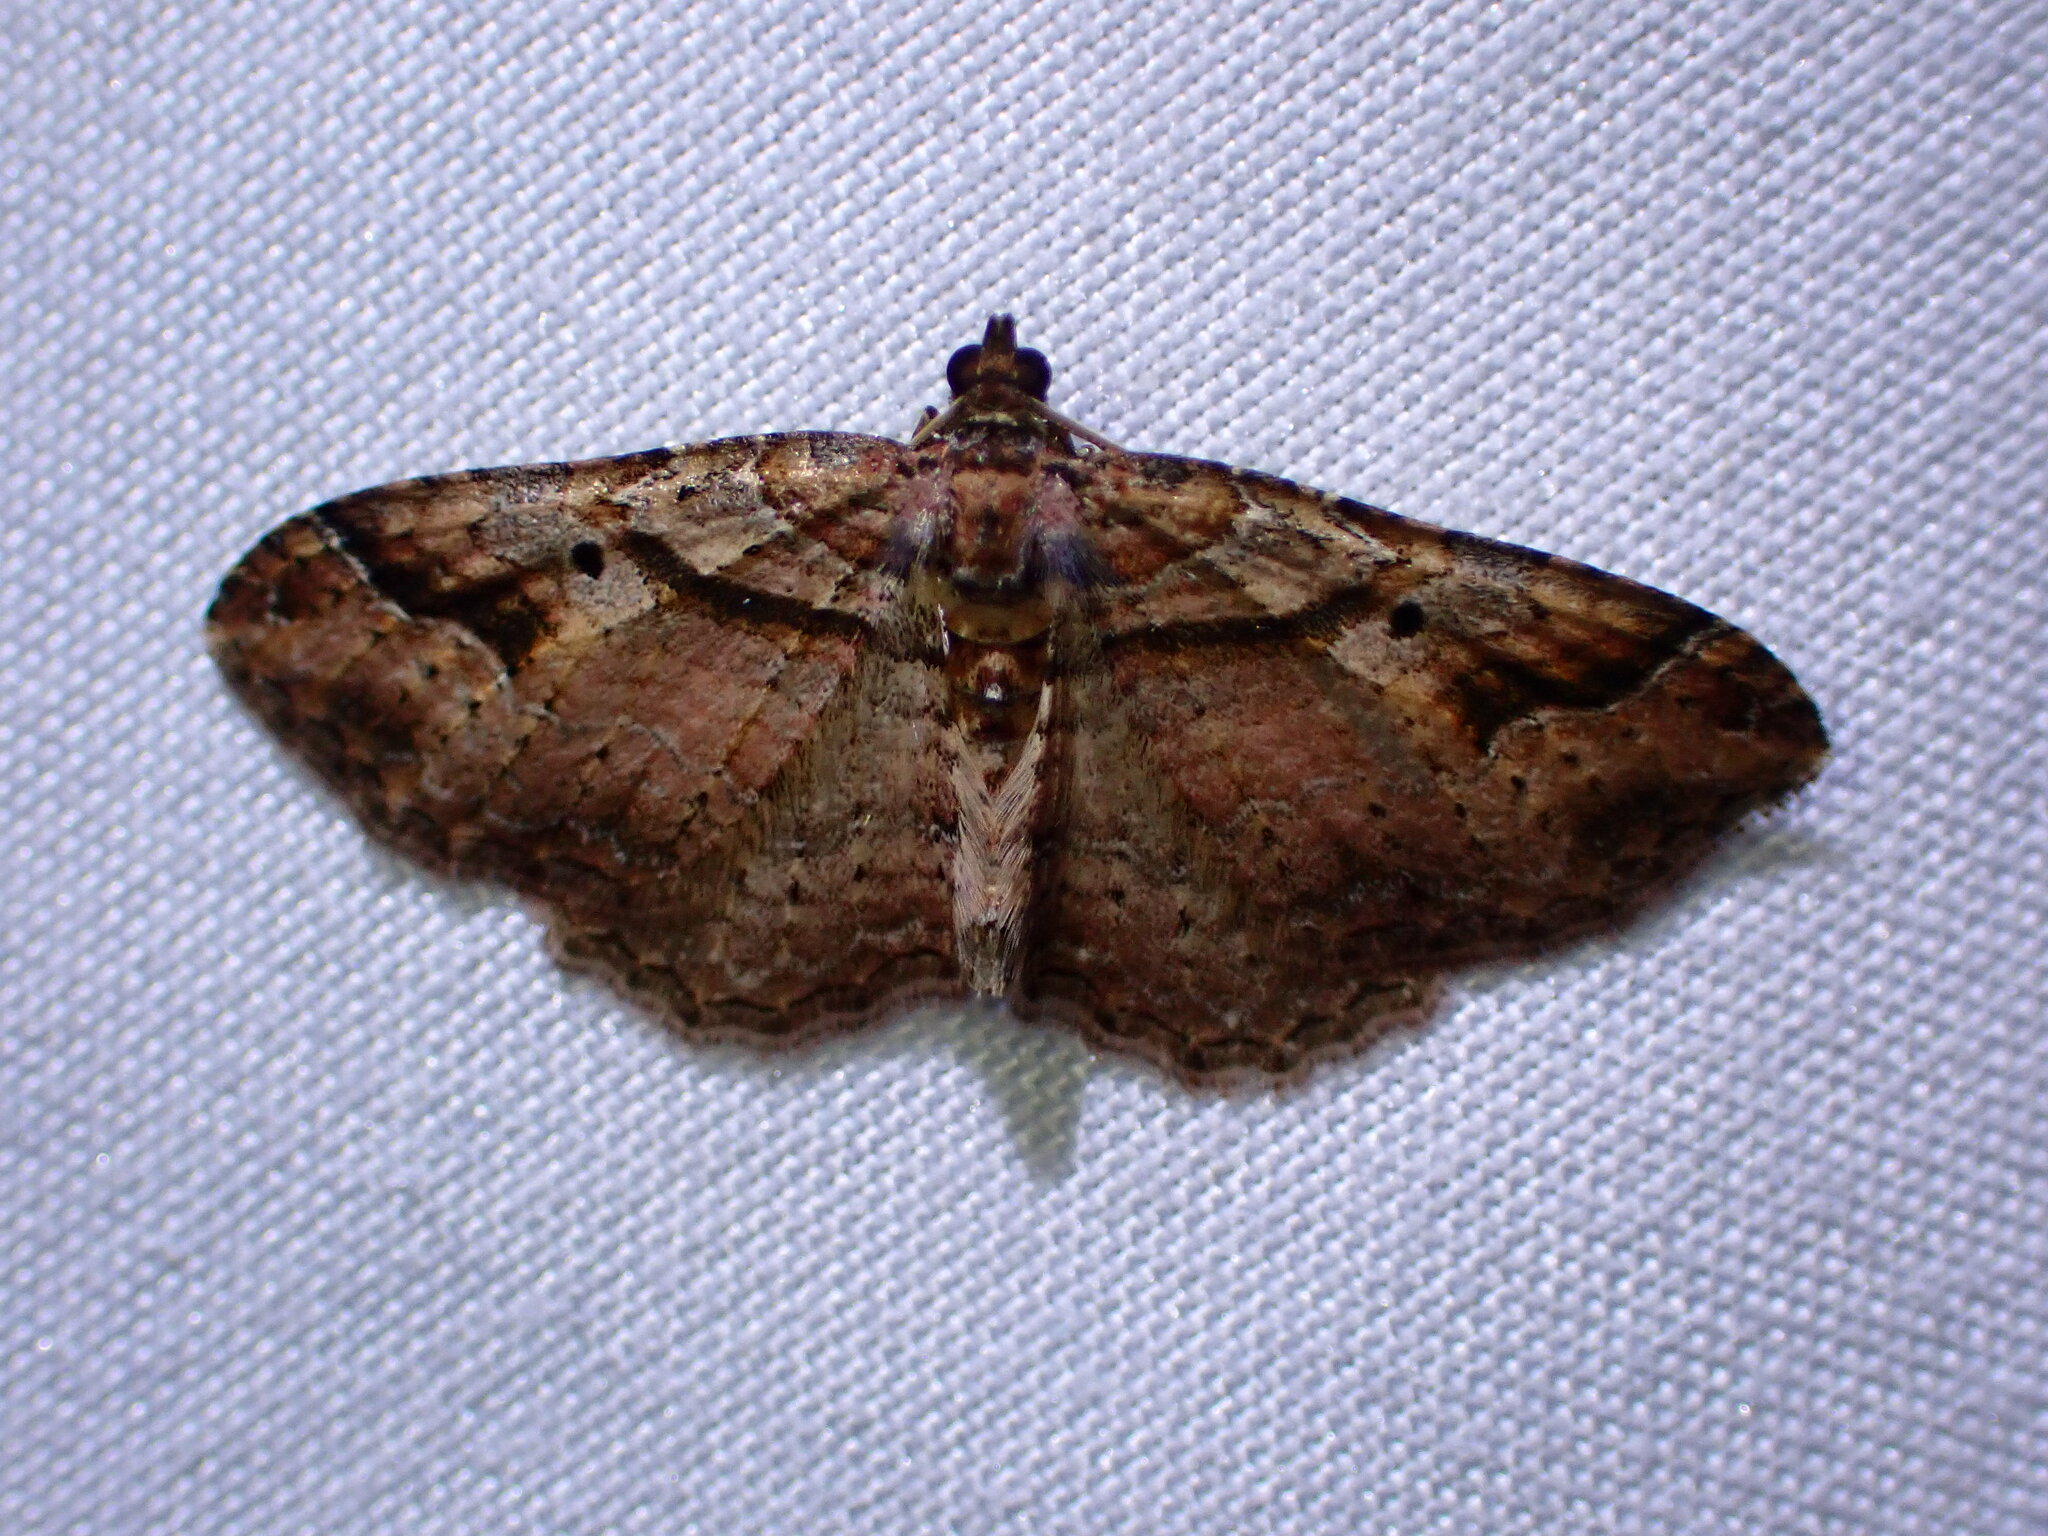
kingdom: Animalia
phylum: Arthropoda
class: Insecta
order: Lepidoptera
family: Geometridae
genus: Costaconvexa
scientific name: Costaconvexa centrostrigaria
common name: Bent-line carpet
